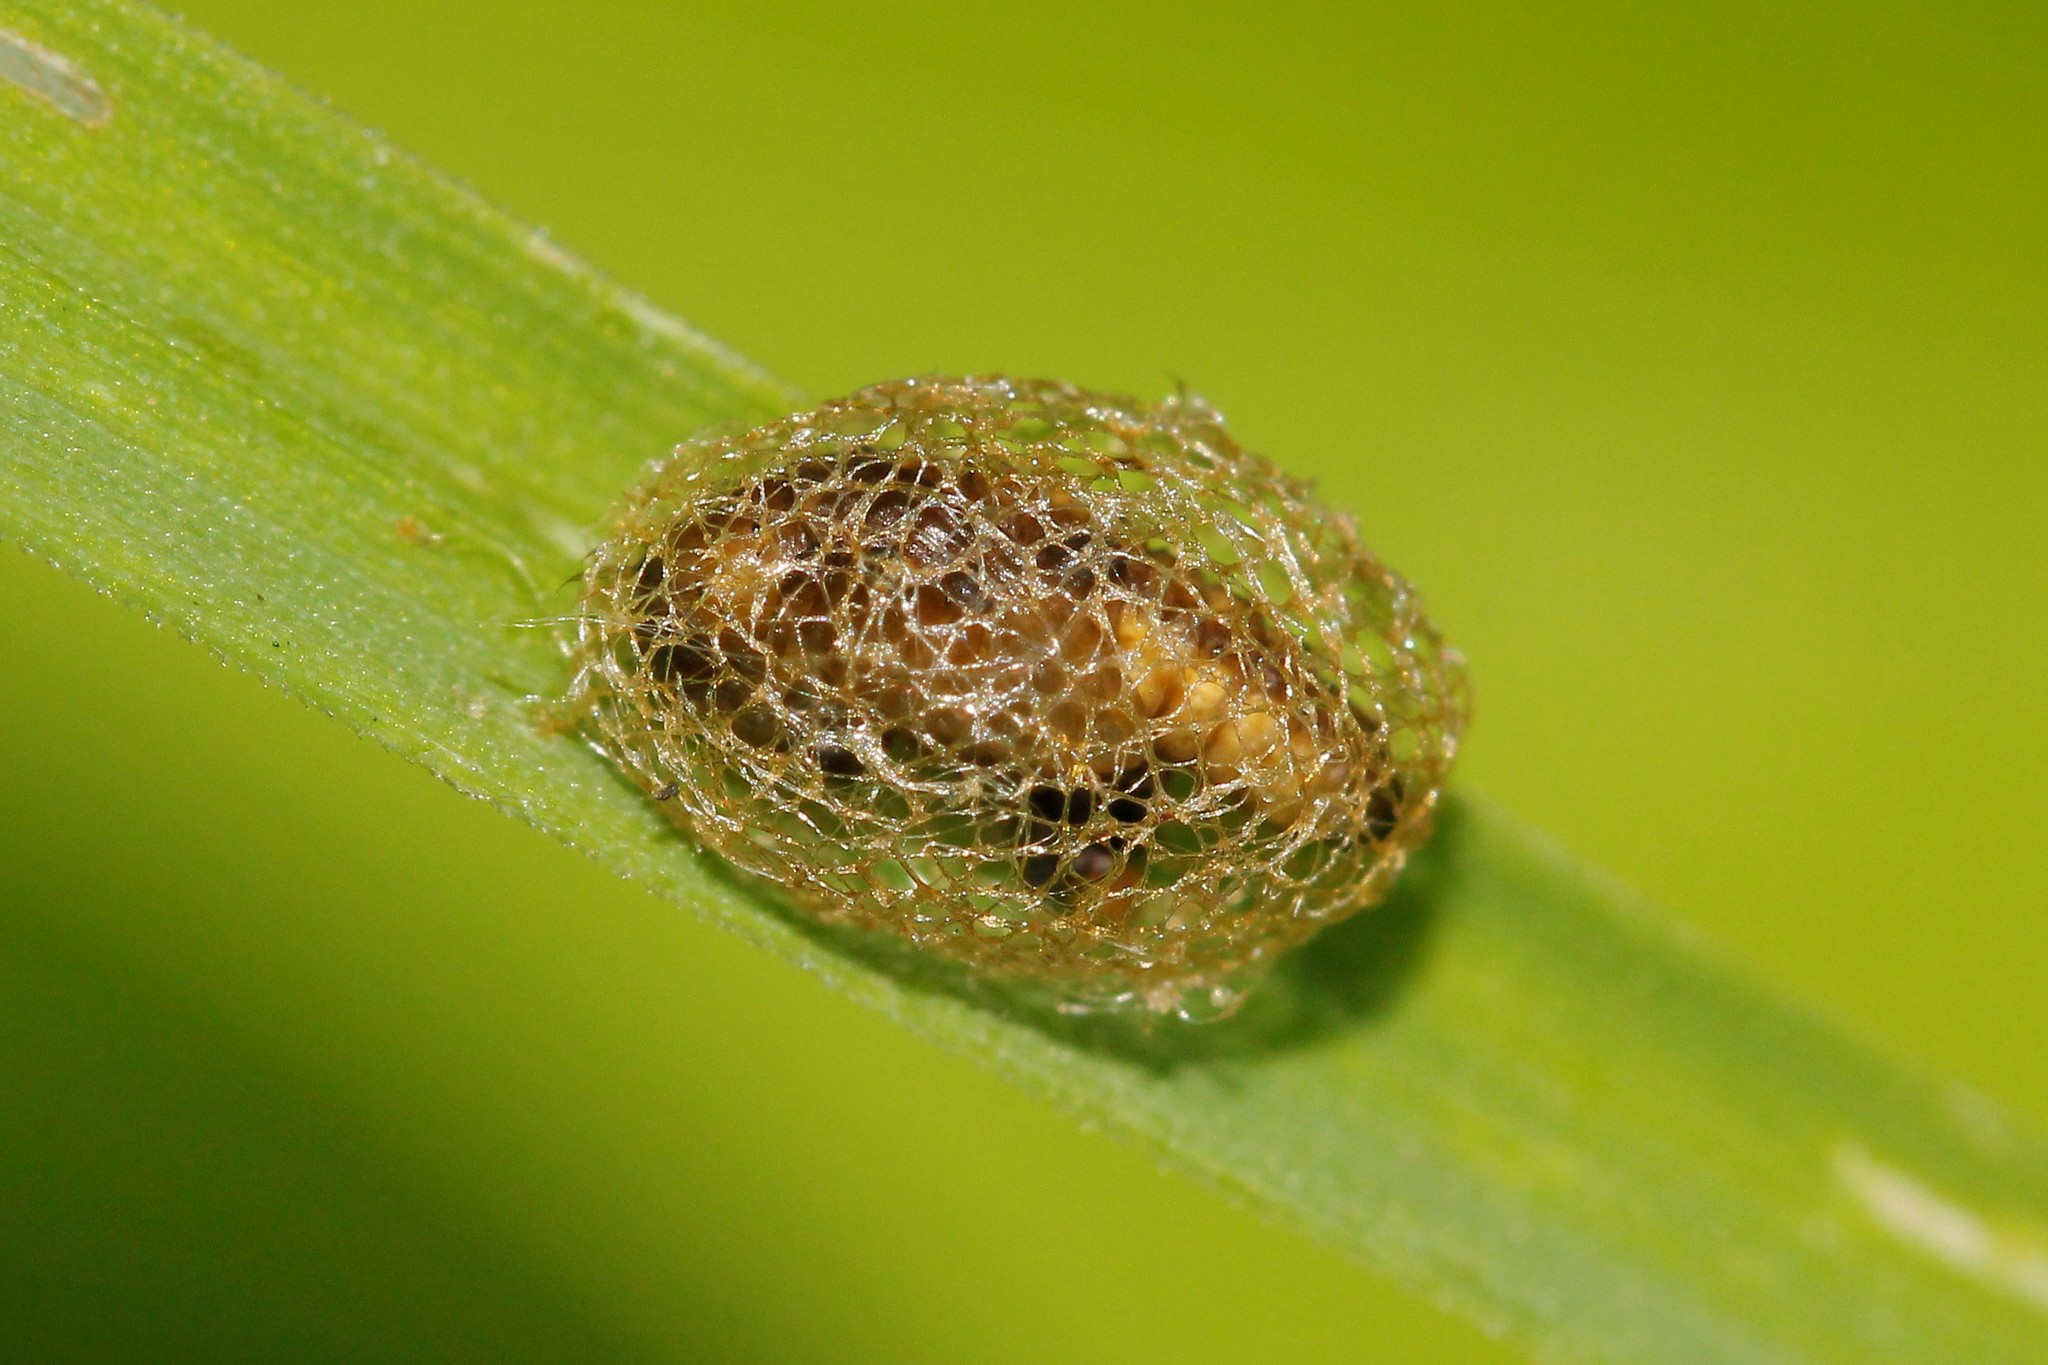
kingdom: Animalia
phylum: Arthropoda
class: Insecta
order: Hymenoptera
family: Argidae
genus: Aproceros
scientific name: Aproceros leucopoda
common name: Zig-zag elm sawfly
